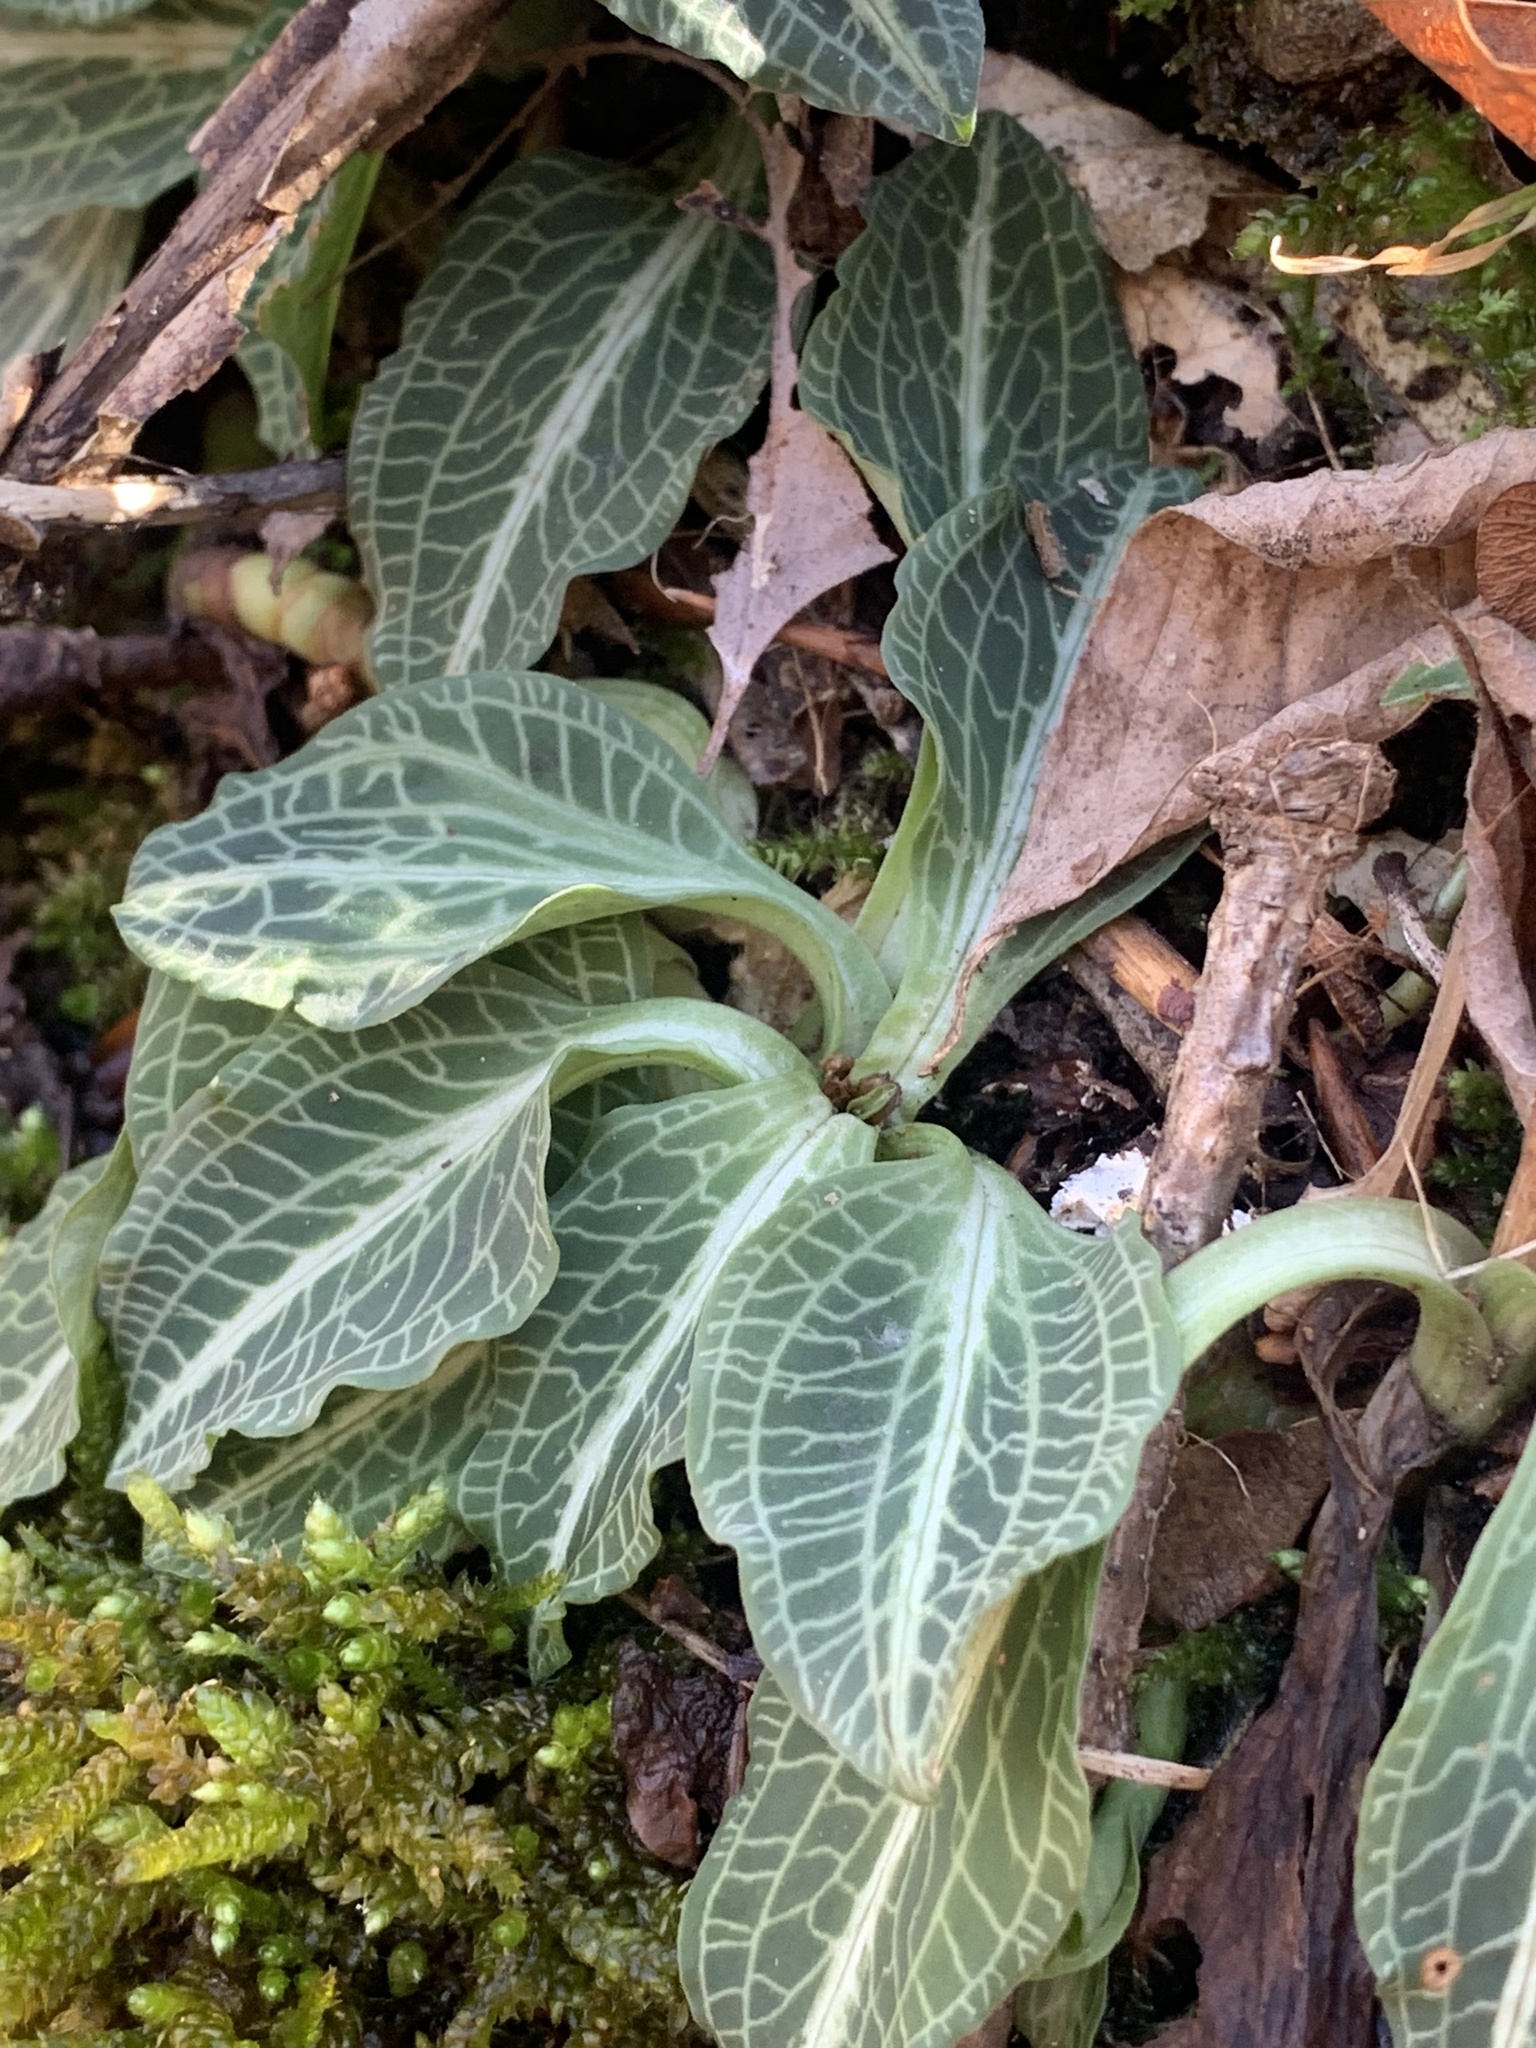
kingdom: Plantae
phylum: Tracheophyta
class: Liliopsida
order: Asparagales
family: Orchidaceae
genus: Goodyera
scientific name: Goodyera pubescens
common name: Downy rattlesnake-plantain
